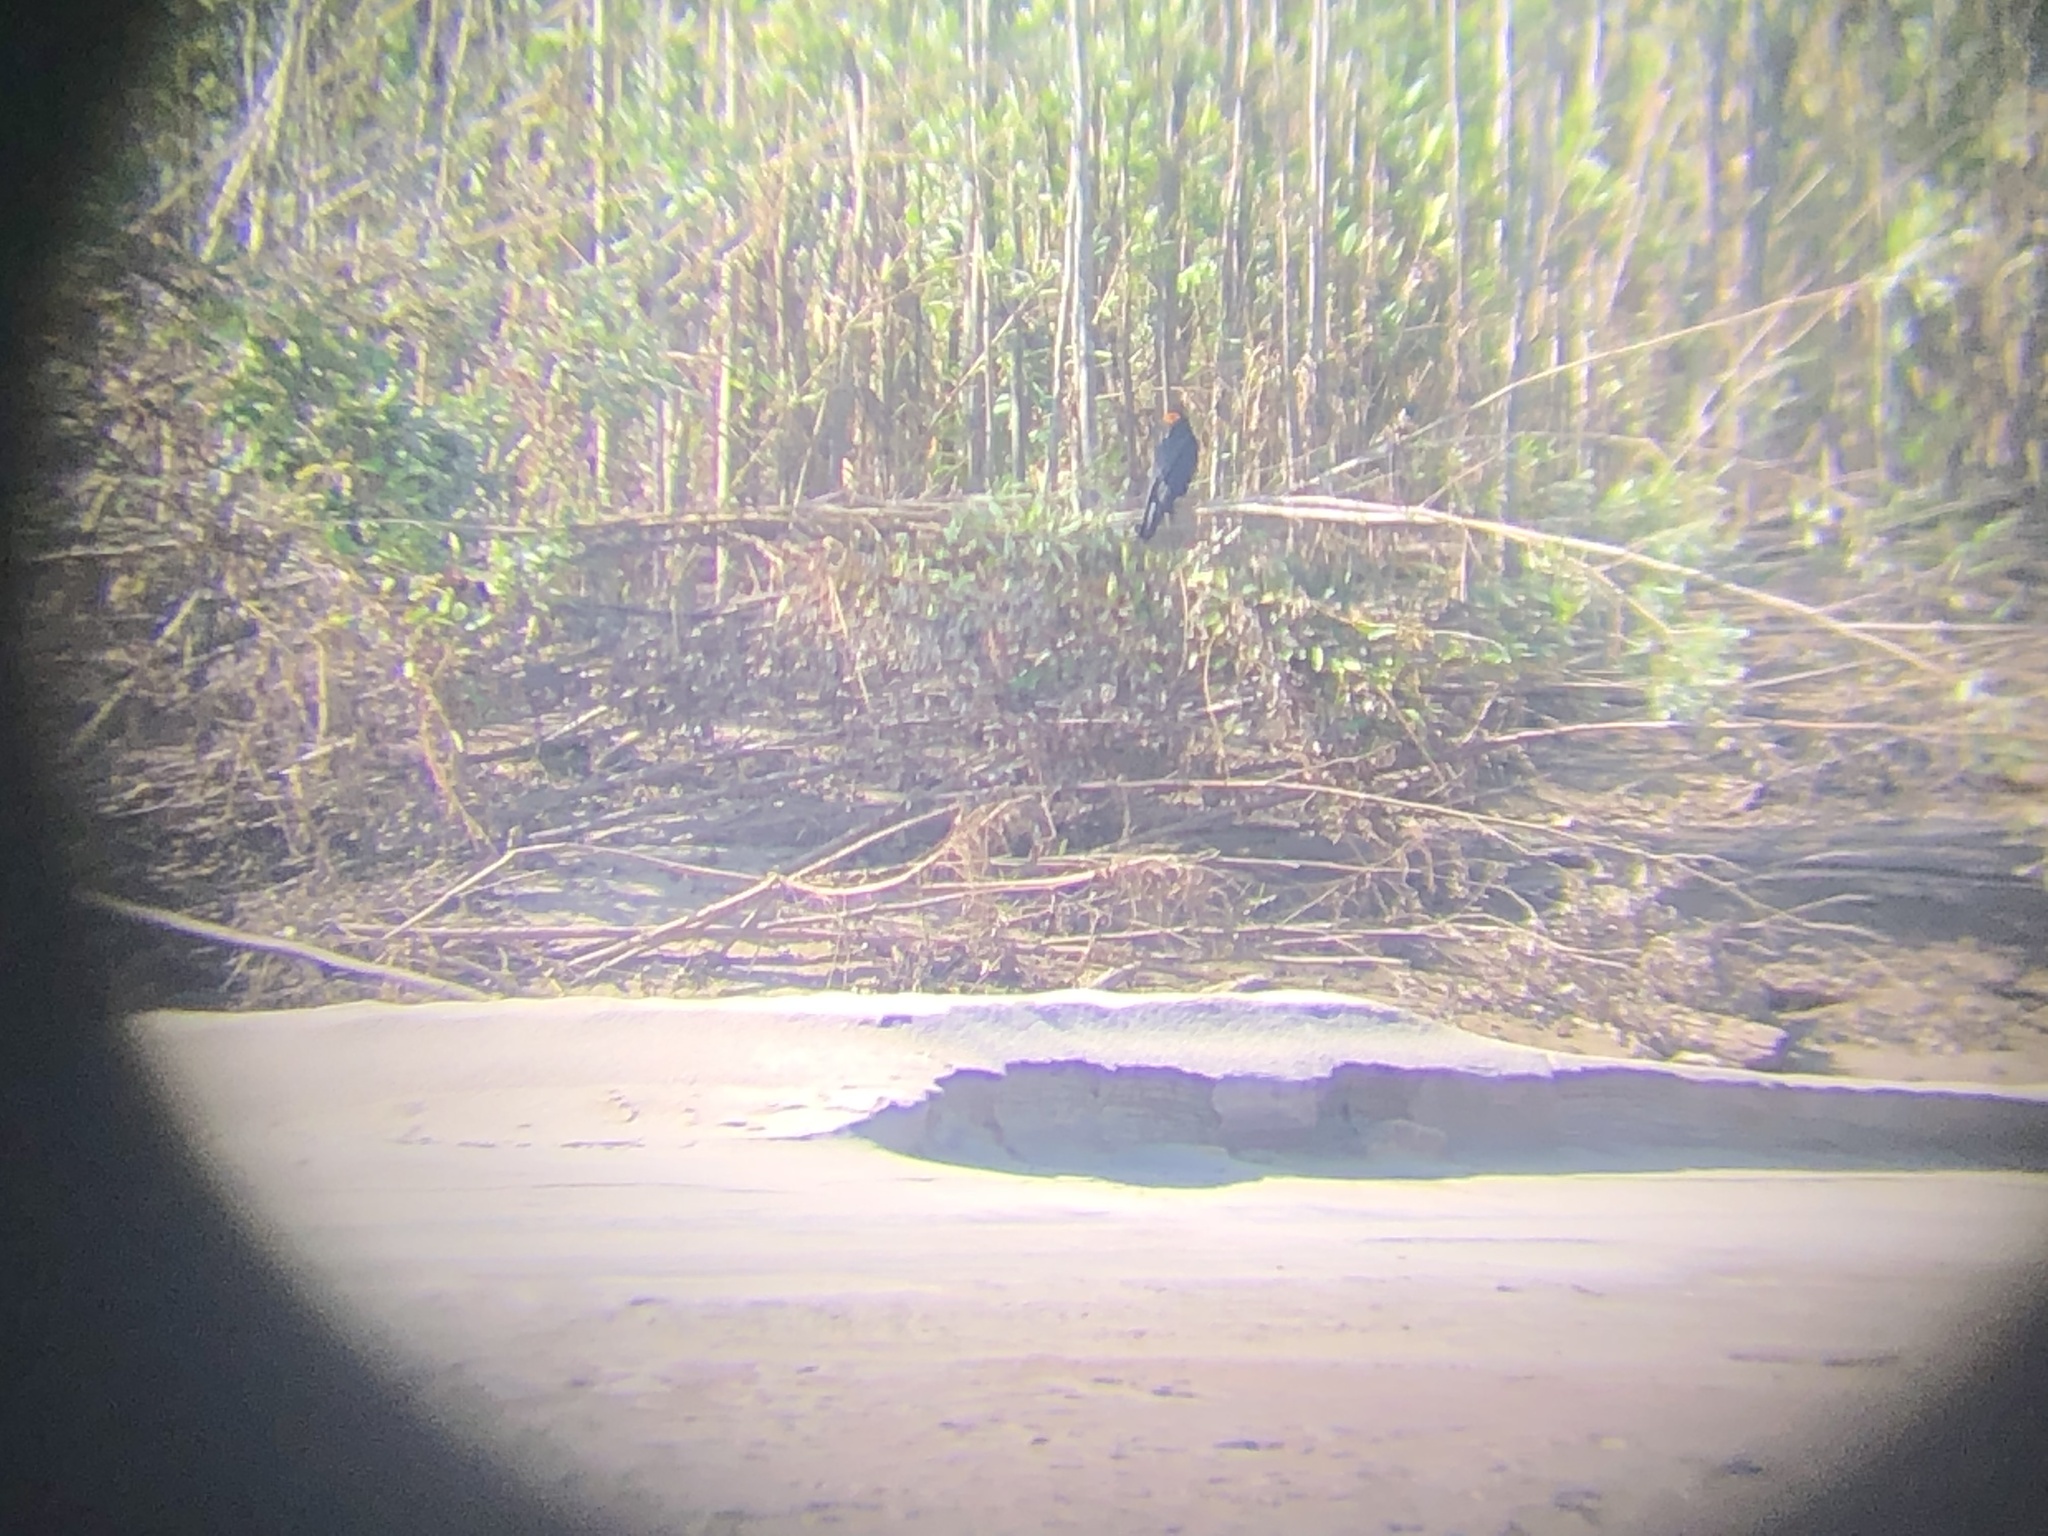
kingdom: Animalia
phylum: Chordata
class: Aves
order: Falconiformes
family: Falconidae
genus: Daptrius
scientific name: Daptrius ater
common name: Black caracara
